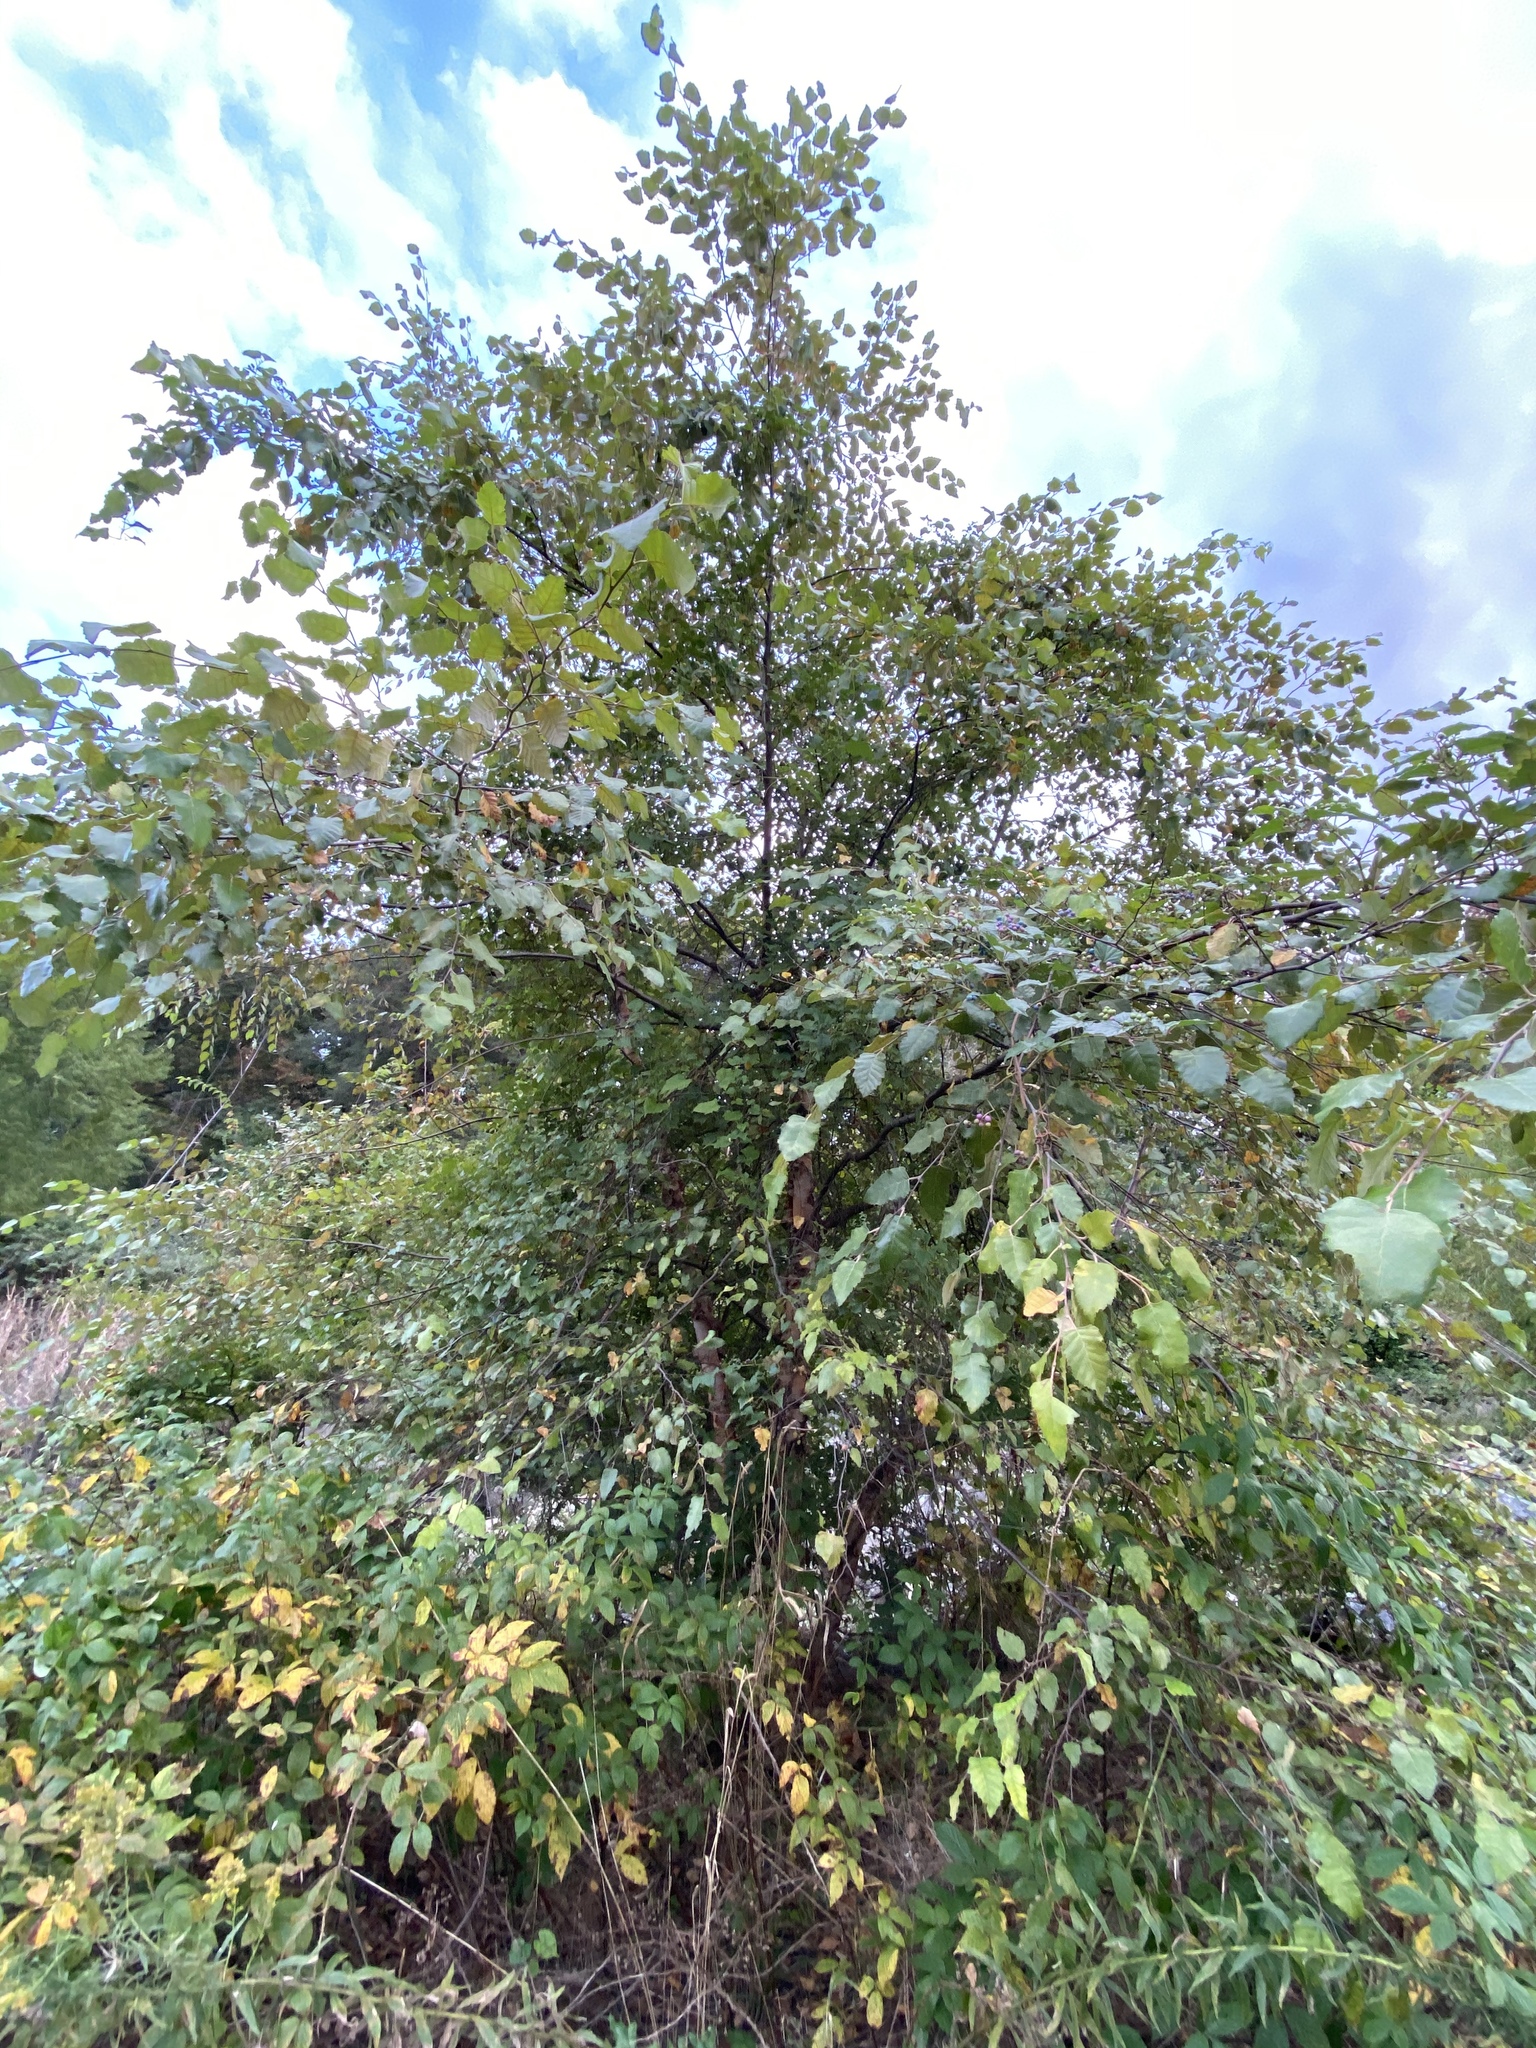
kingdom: Plantae
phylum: Tracheophyta
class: Magnoliopsida
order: Fagales
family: Betulaceae
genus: Betula
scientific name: Betula nigra
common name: Black birch
